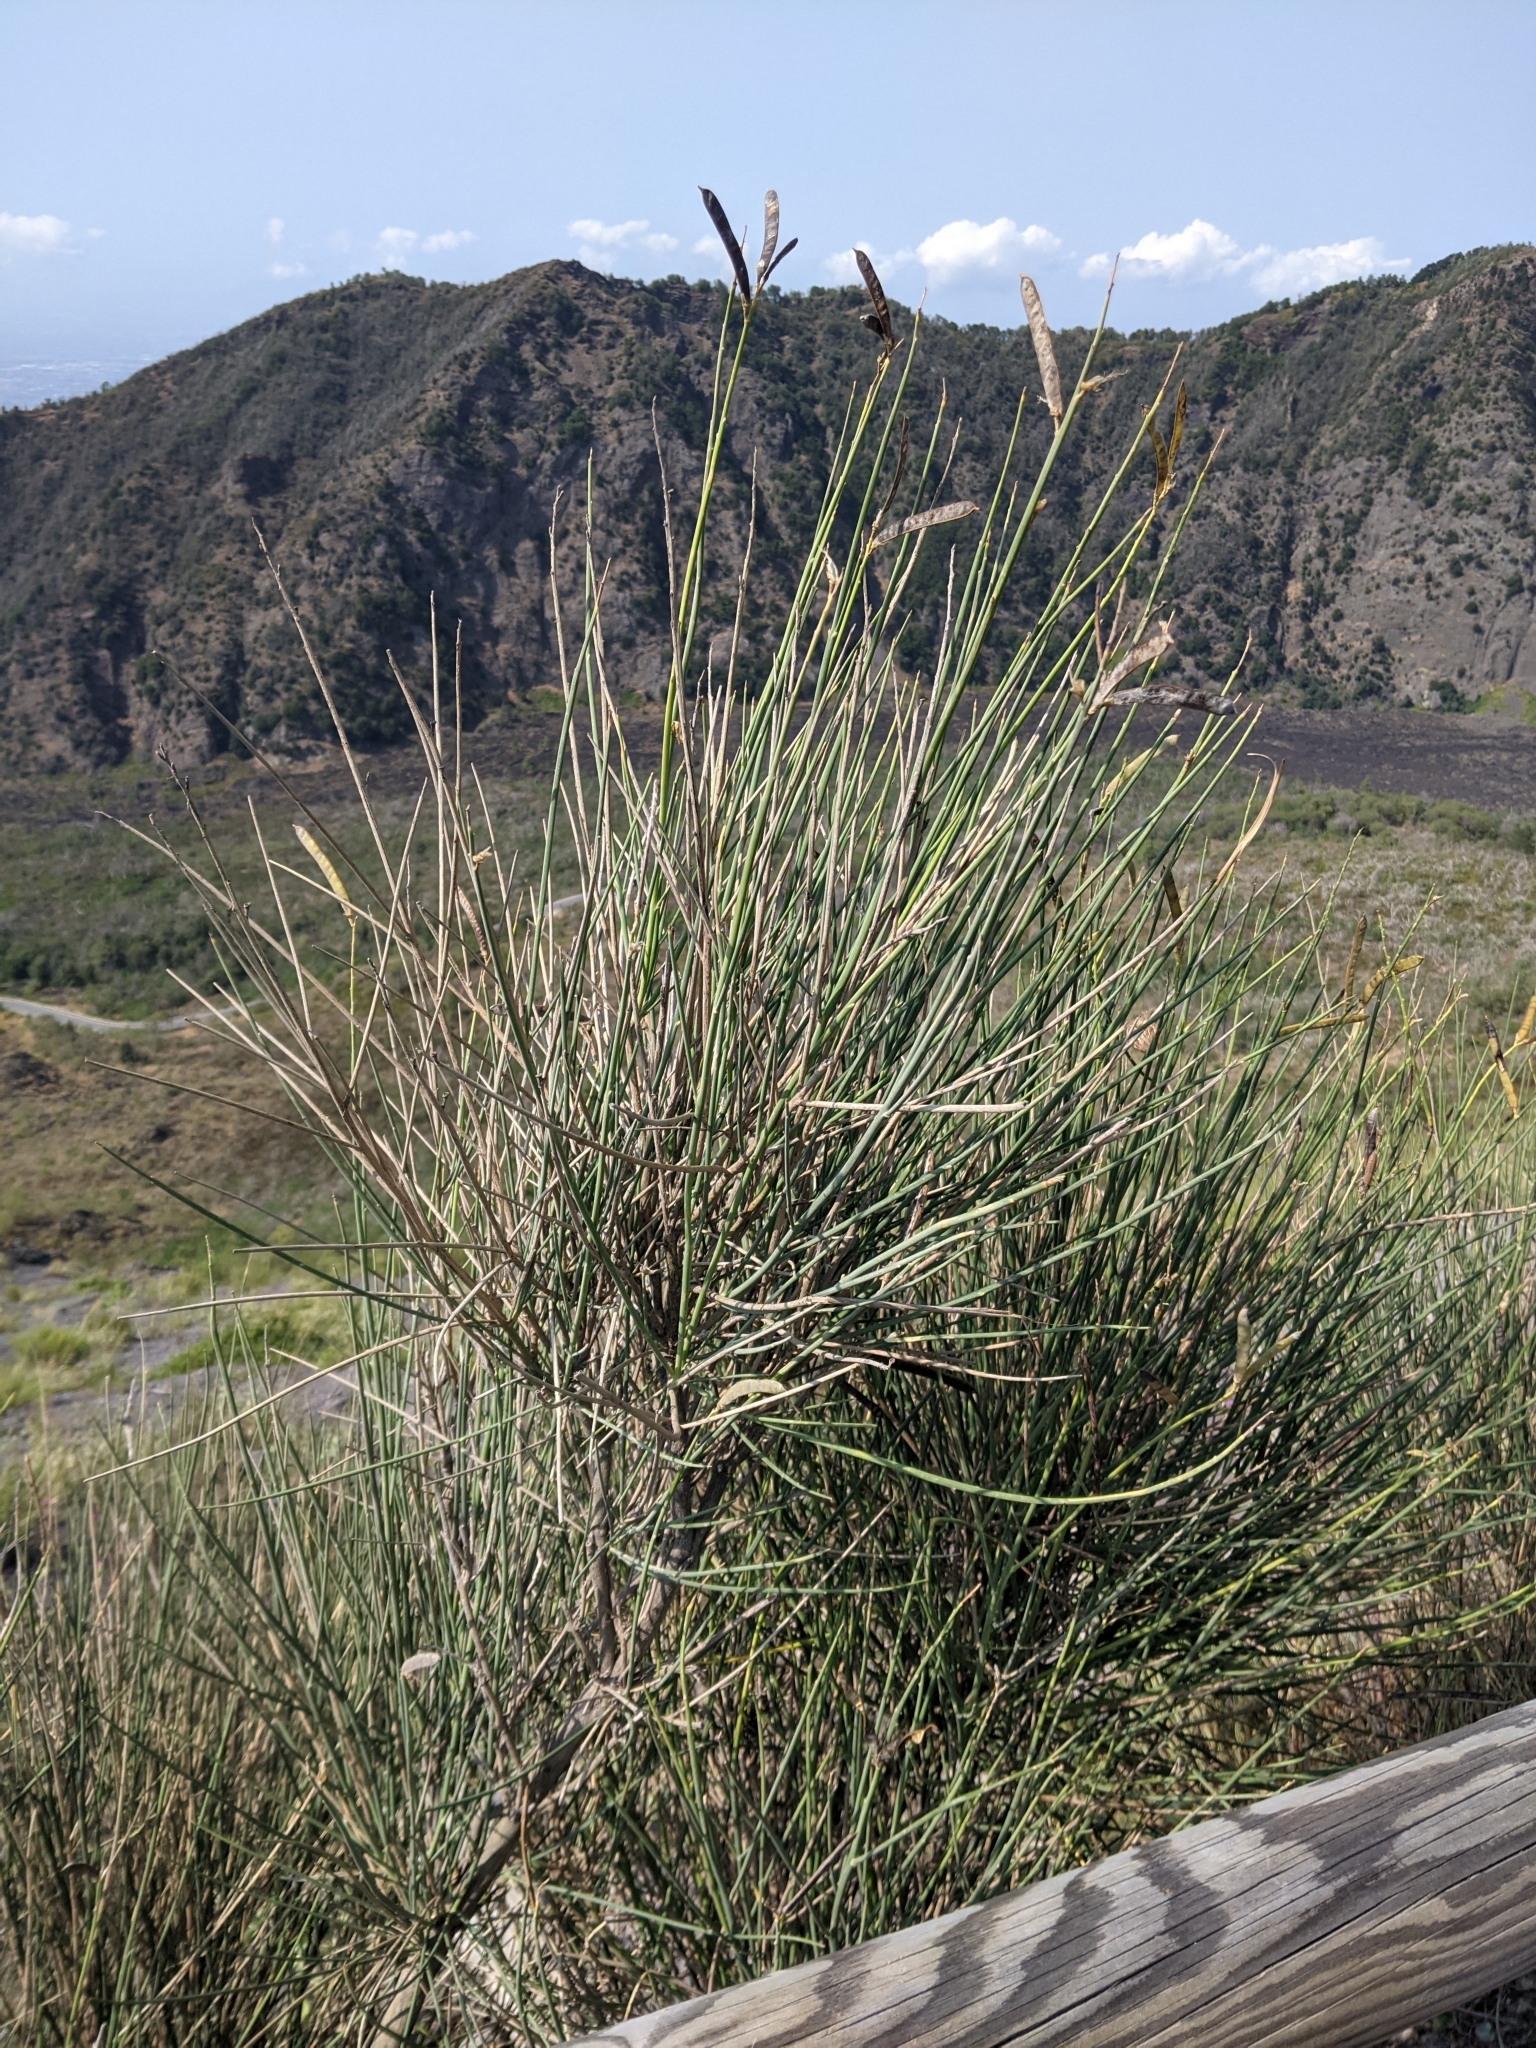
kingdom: Plantae
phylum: Tracheophyta
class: Magnoliopsida
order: Fabales
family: Fabaceae
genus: Spartium
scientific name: Spartium junceum
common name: Spanish broom
